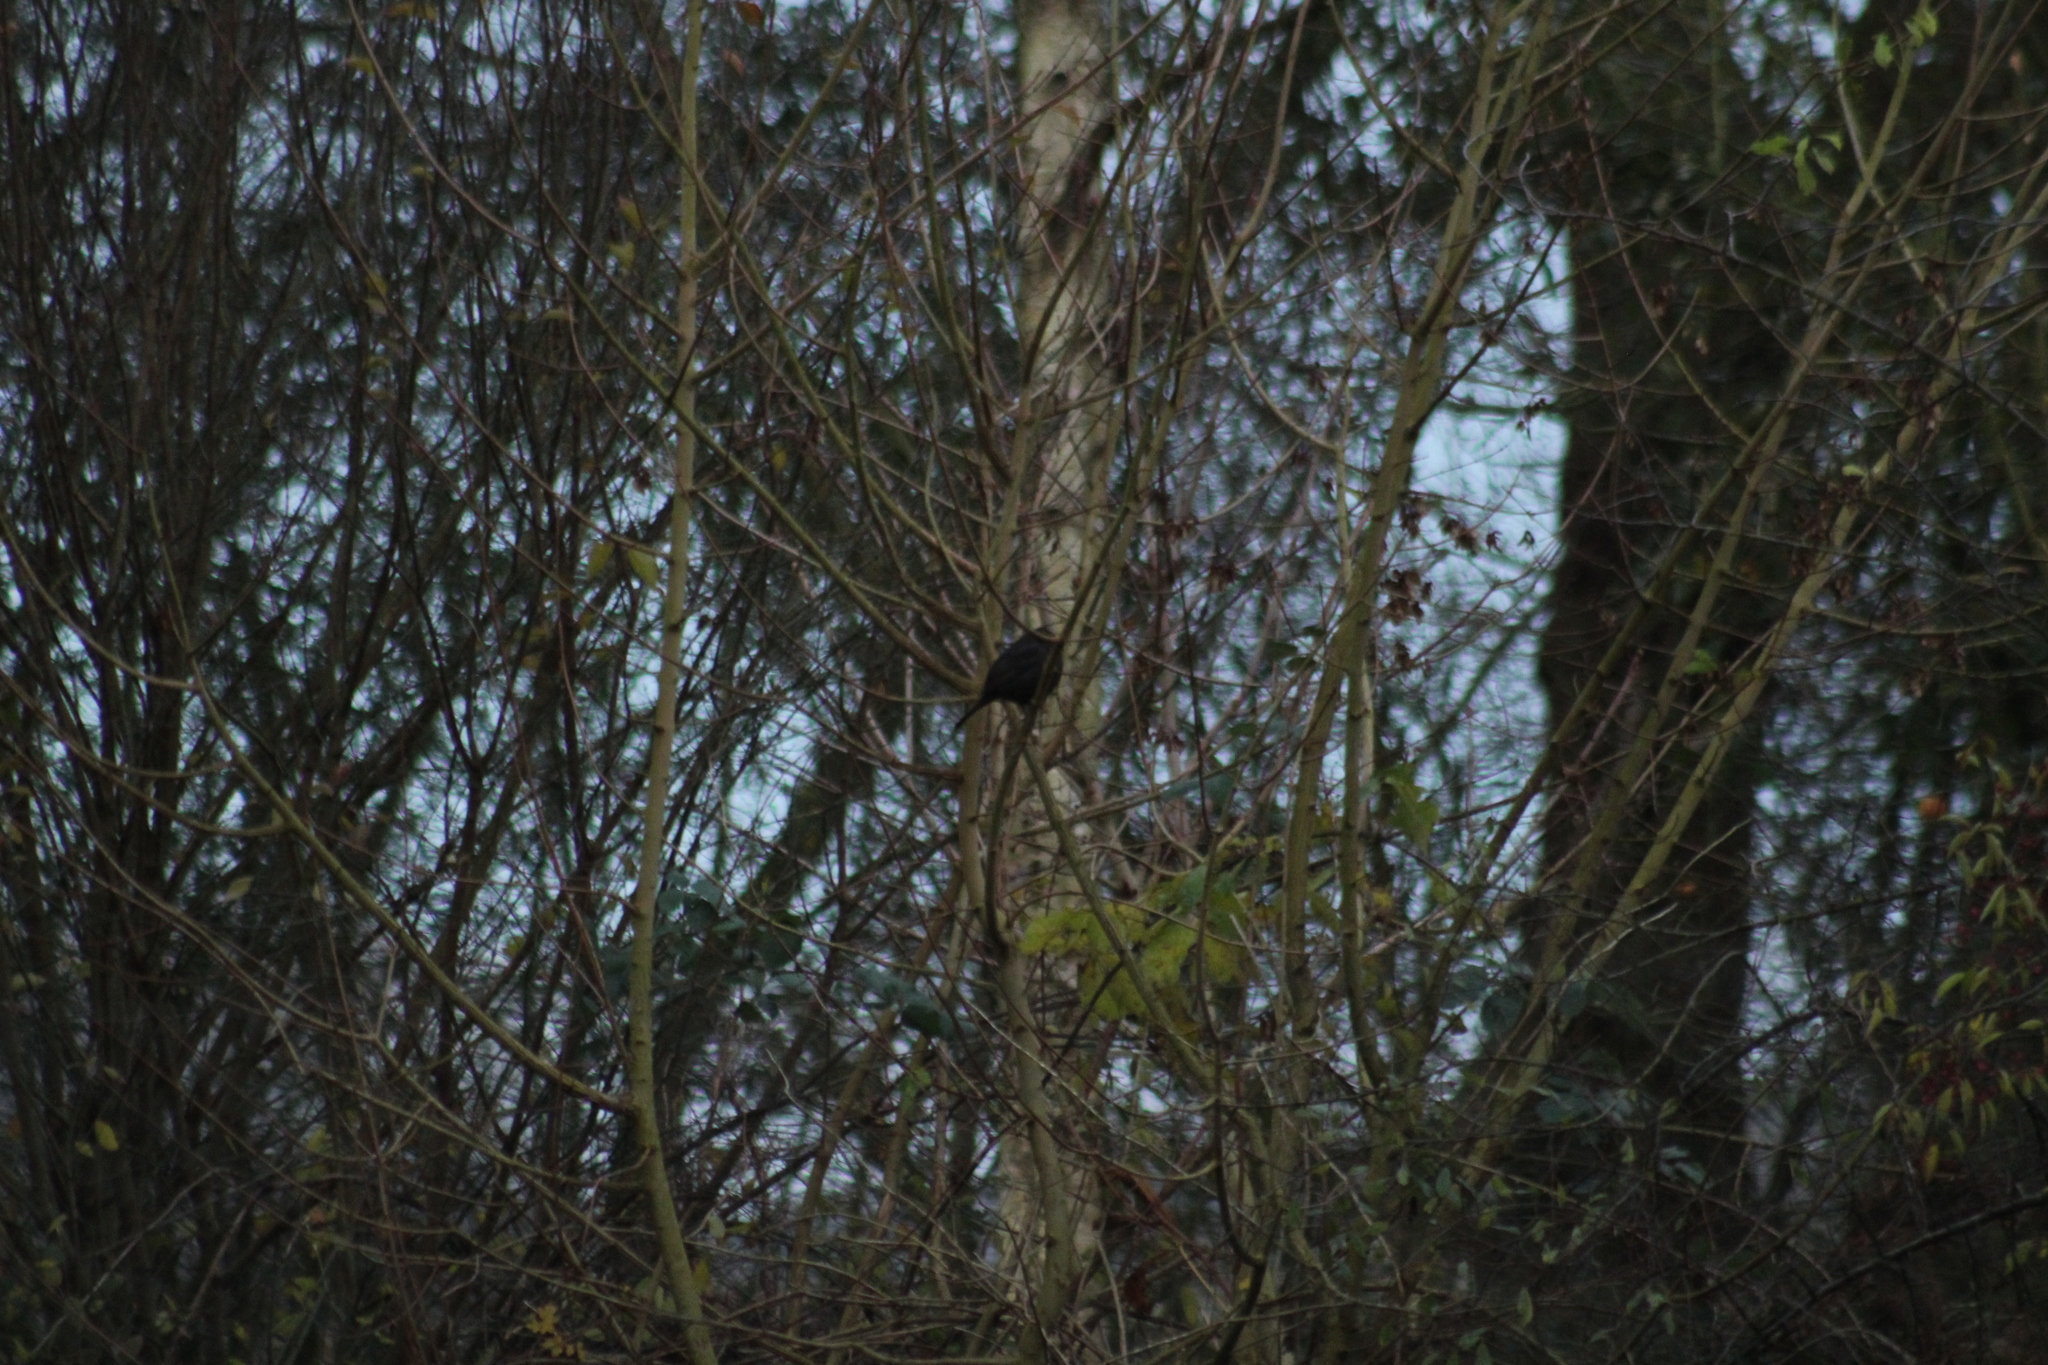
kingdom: Animalia
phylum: Chordata
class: Aves
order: Passeriformes
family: Turdidae
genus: Turdus
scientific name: Turdus merula
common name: Common blackbird
